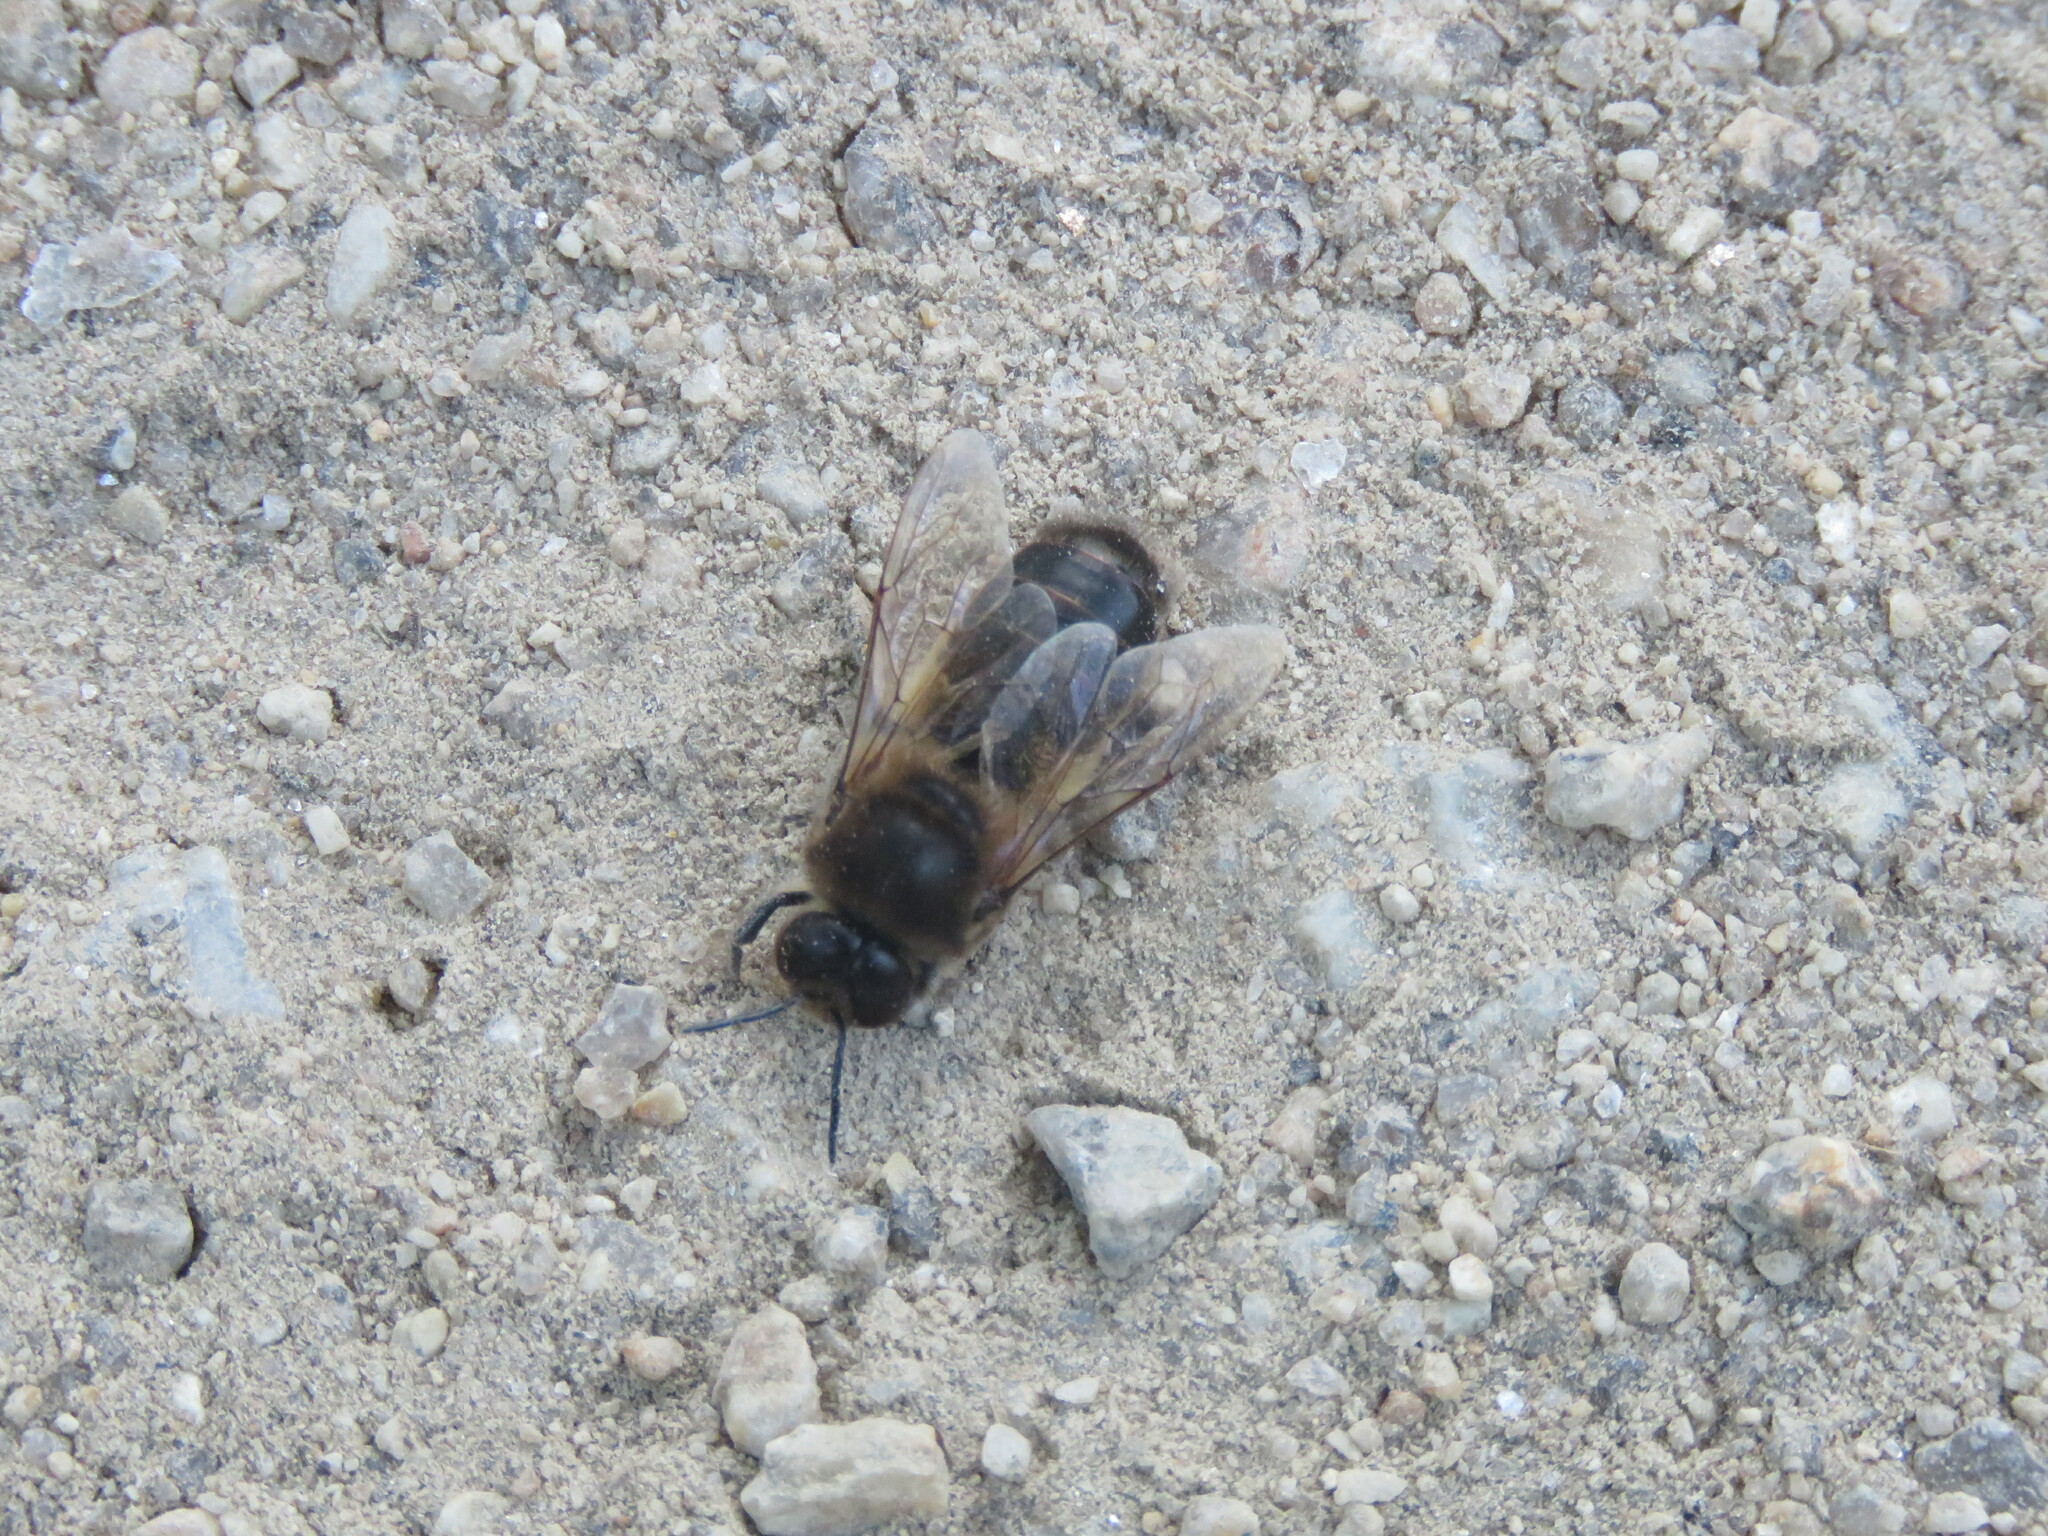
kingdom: Animalia
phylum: Arthropoda
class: Insecta
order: Hymenoptera
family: Apidae
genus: Apis
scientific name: Apis mellifera
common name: Honey bee
